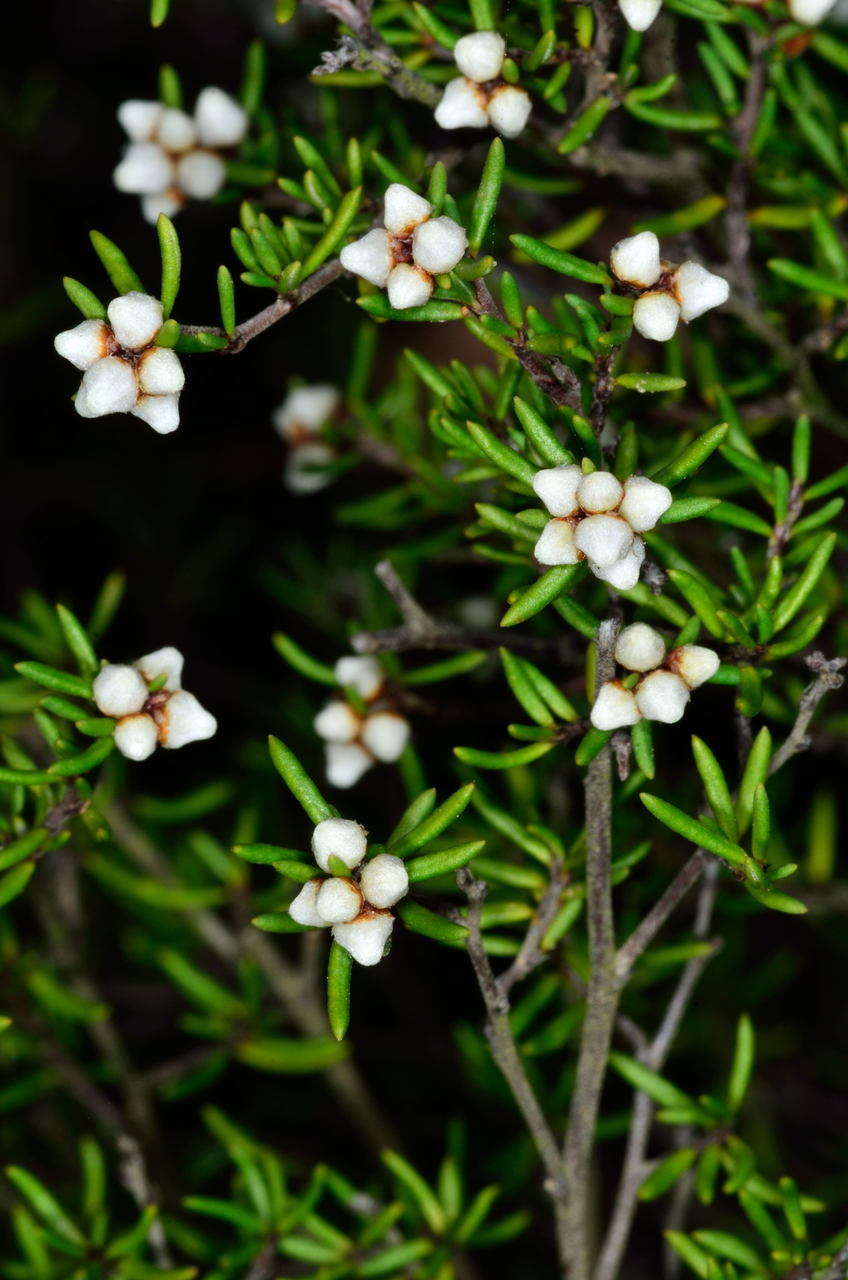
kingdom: Plantae
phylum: Tracheophyta
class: Magnoliopsida
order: Rosales
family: Rhamnaceae
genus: Cryptandra
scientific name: Cryptandra tomentosa
